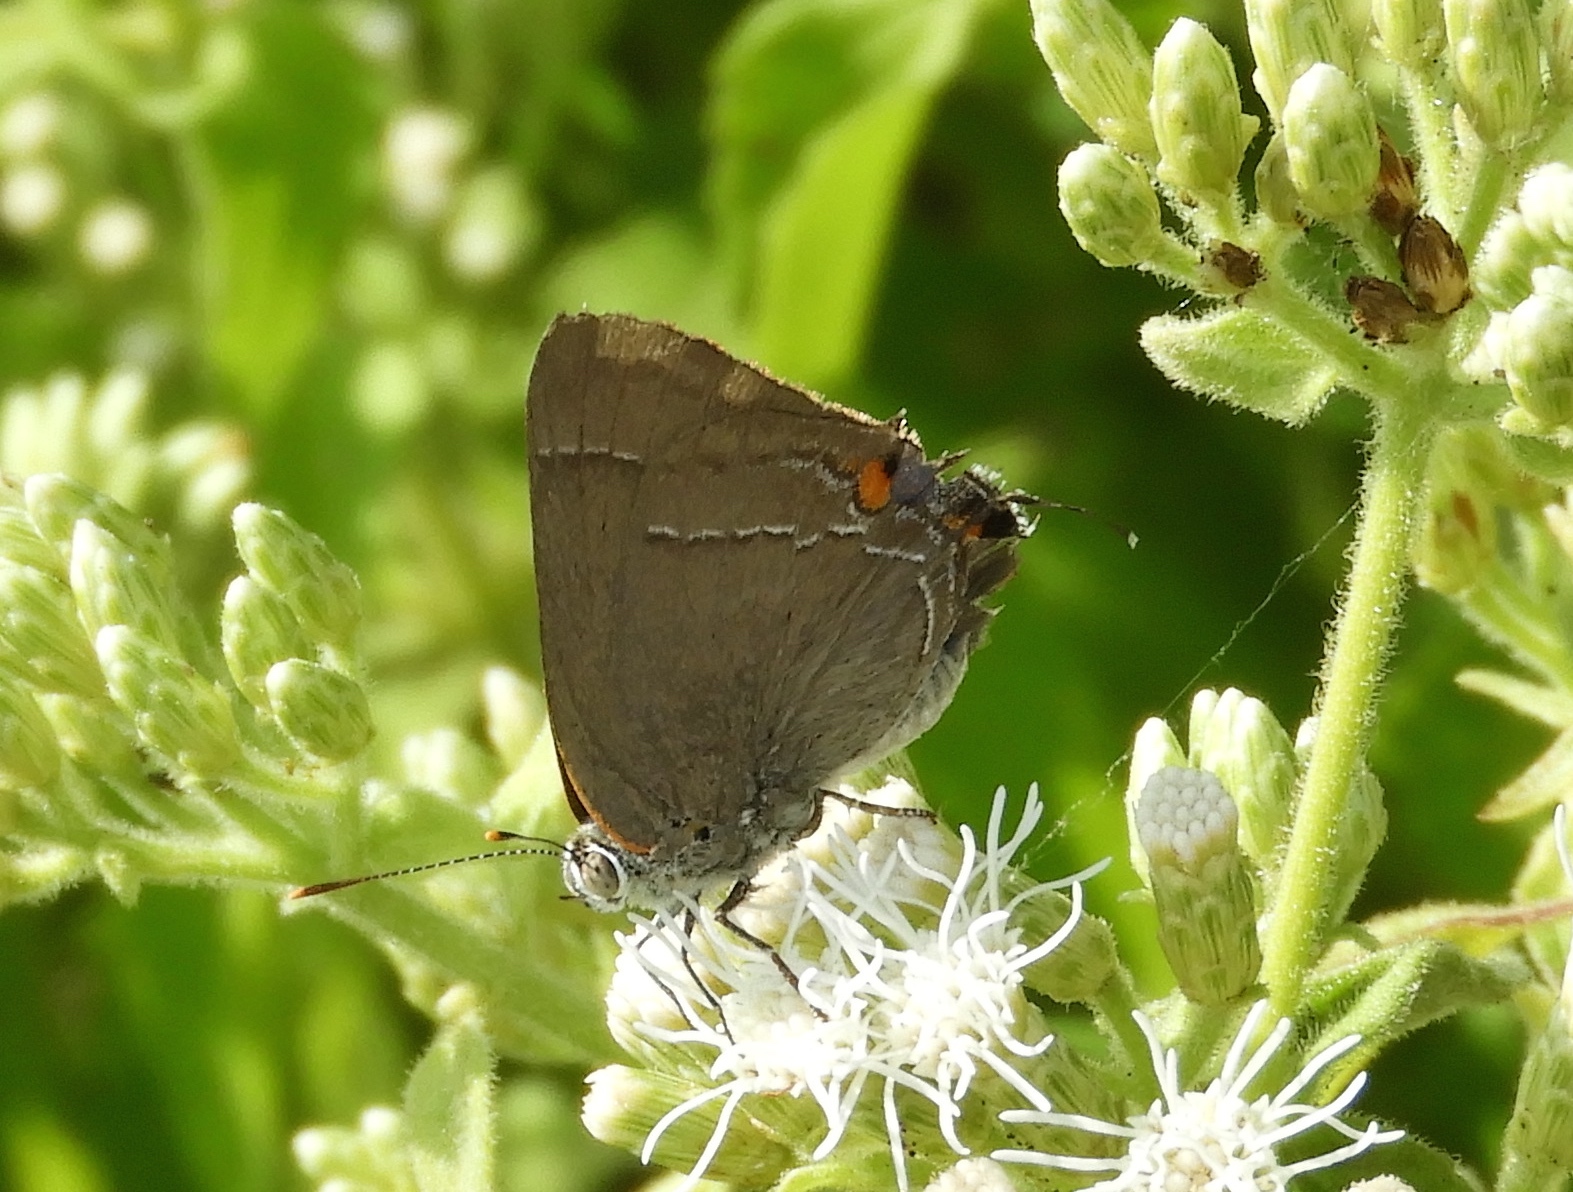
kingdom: Animalia
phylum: Arthropoda
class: Insecta
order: Lepidoptera
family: Lycaenidae
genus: Thecla
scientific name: Thecla marius
